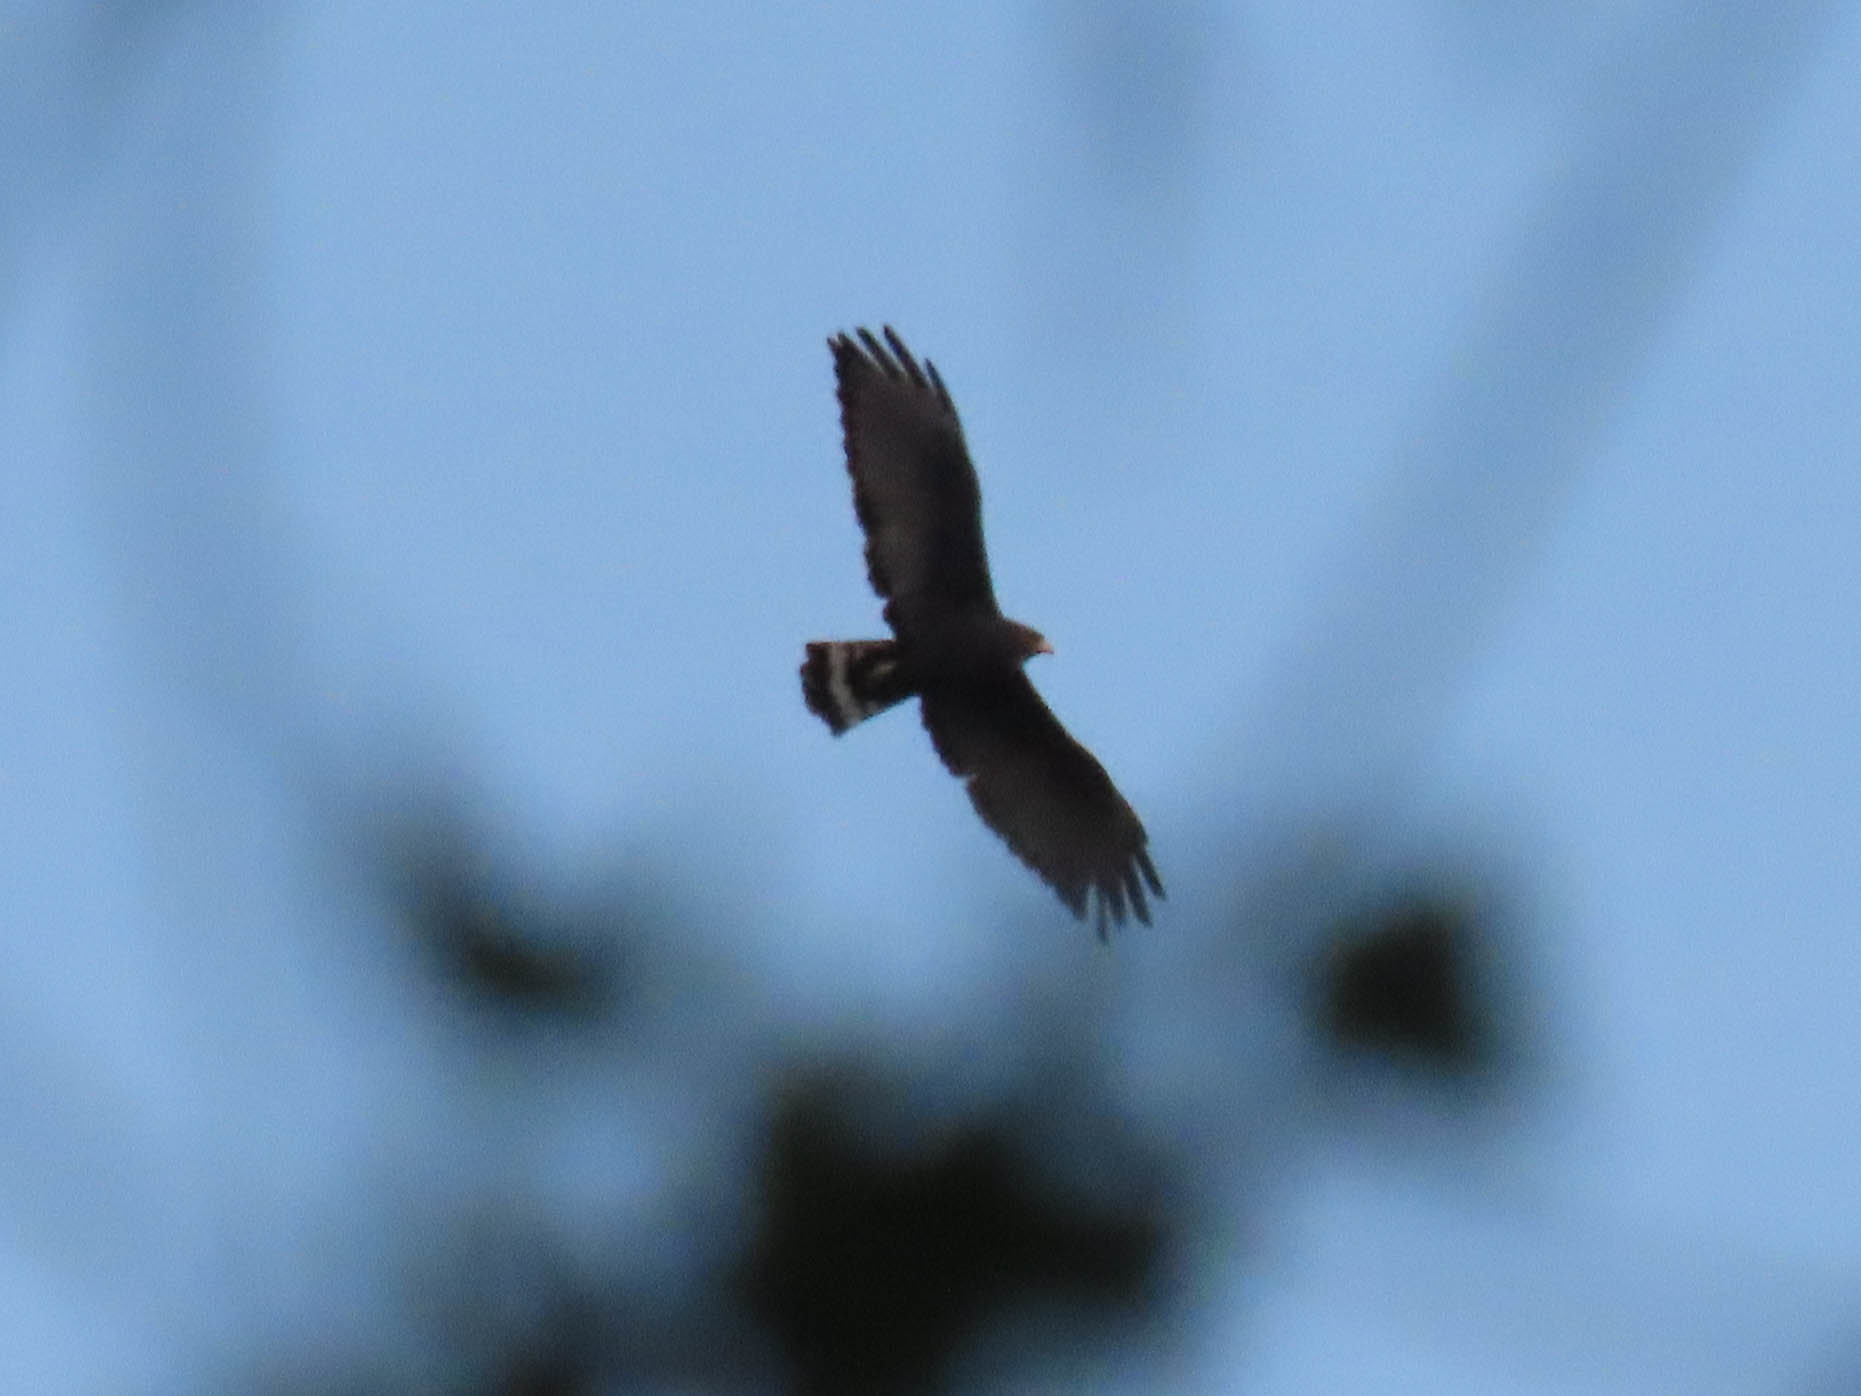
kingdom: Animalia
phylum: Chordata
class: Aves
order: Accipitriformes
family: Accipitridae
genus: Buteo
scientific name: Buteo albonotatus
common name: Zone-tailed hawk
